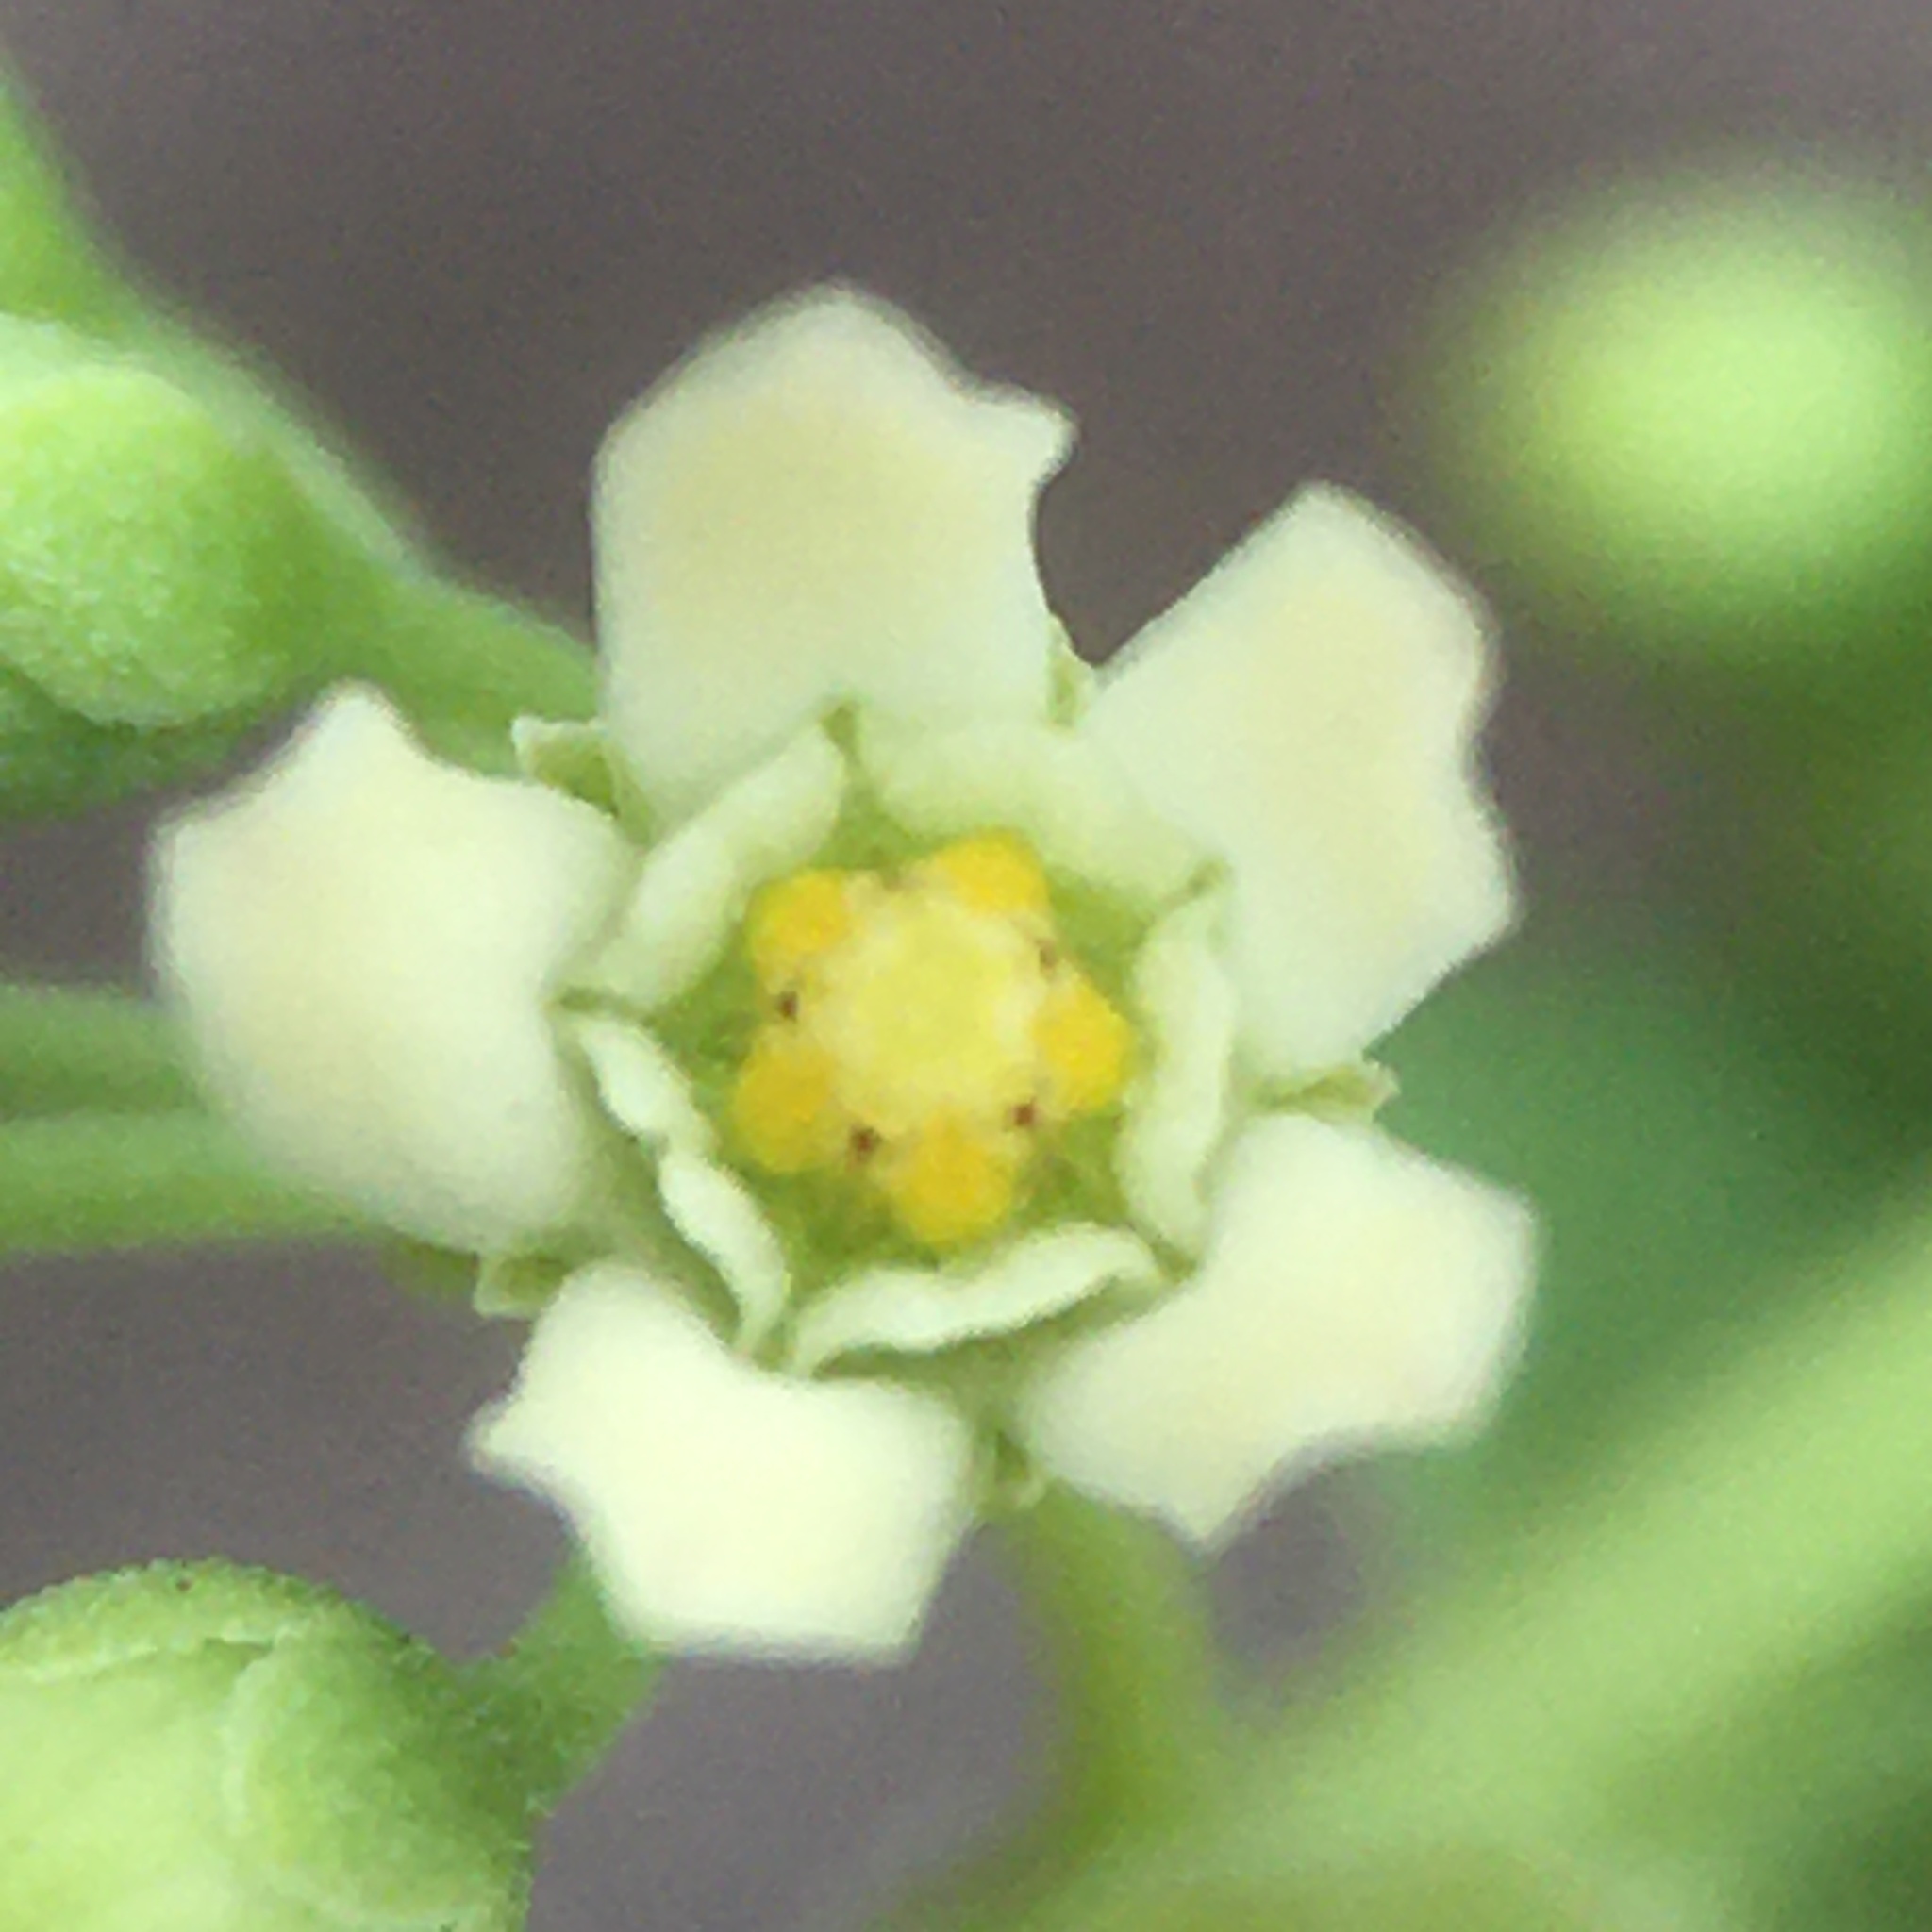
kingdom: Plantae
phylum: Tracheophyta
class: Magnoliopsida
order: Gentianales
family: Apocynaceae
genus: Diplolepis
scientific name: Diplolepis nummulariifolia
